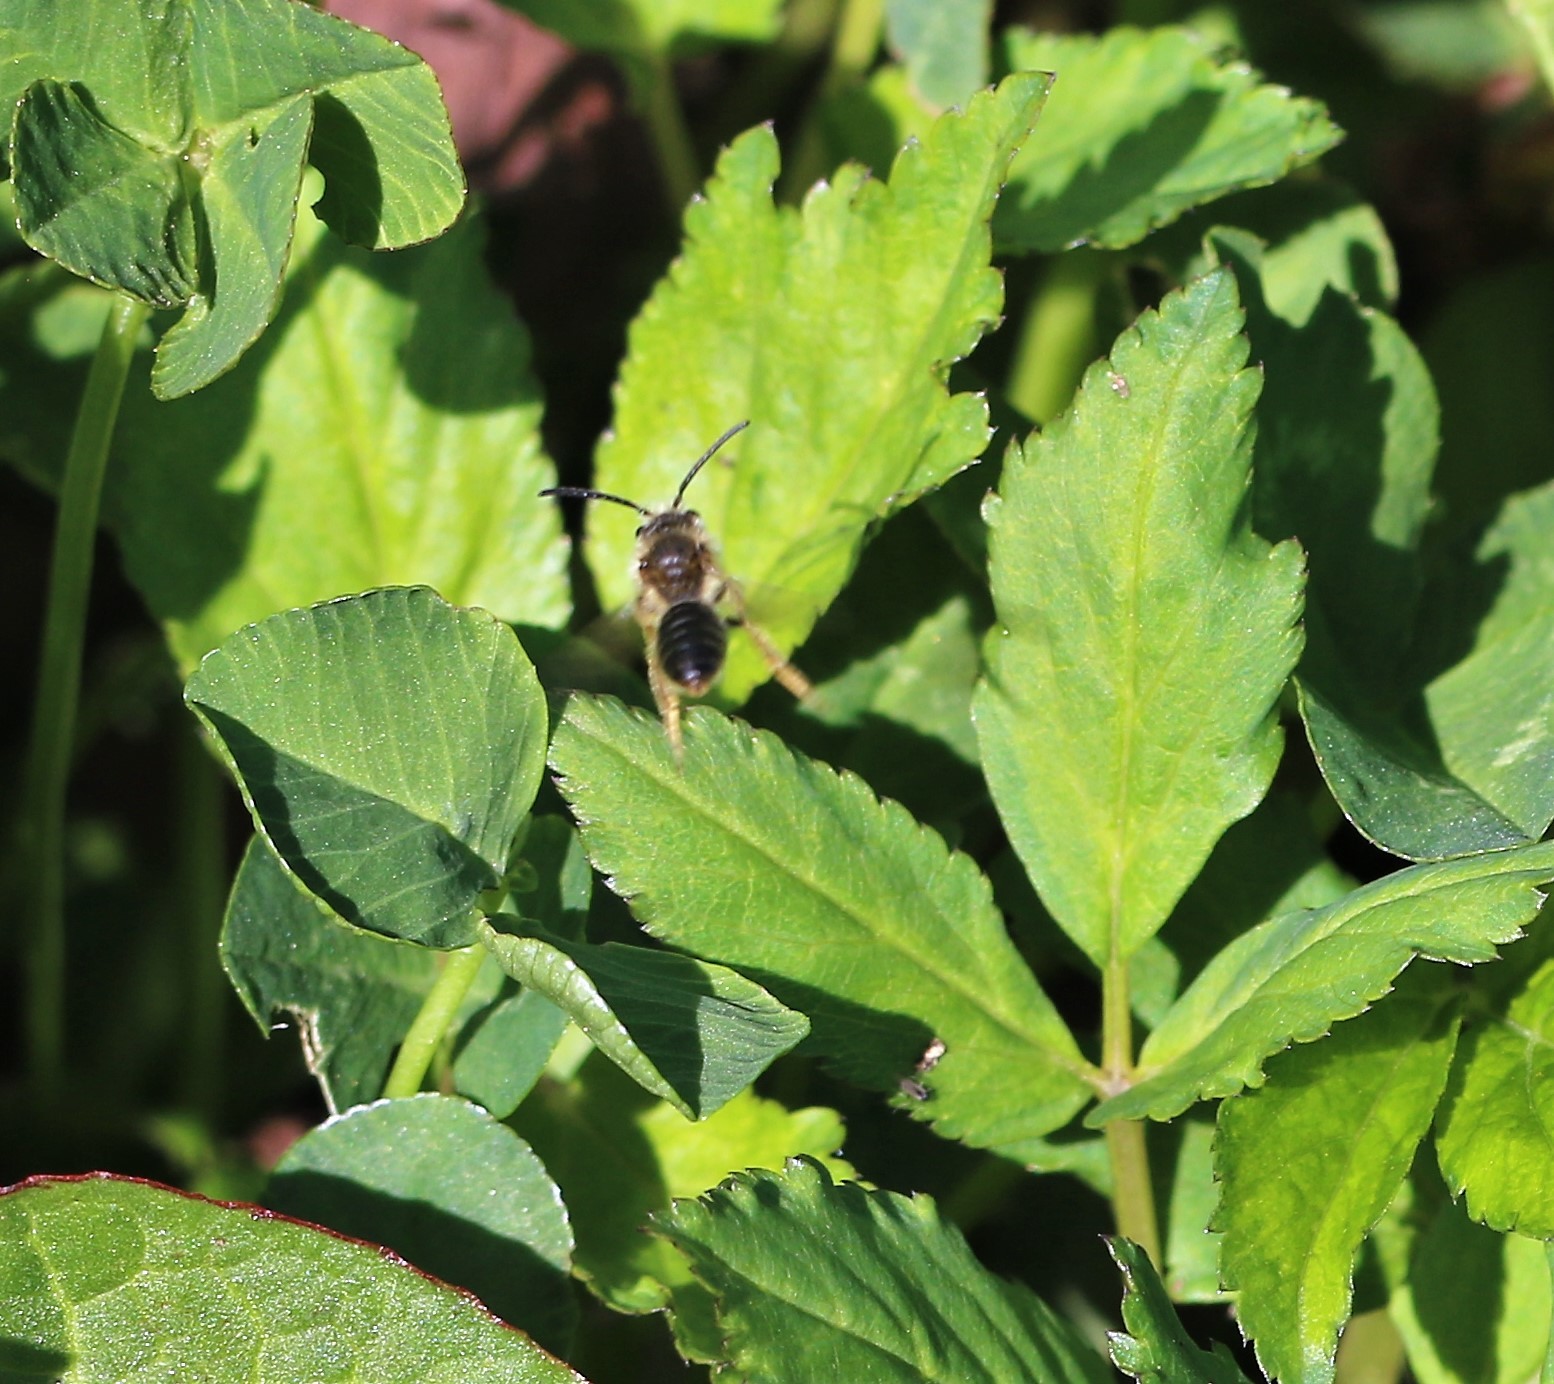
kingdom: Animalia
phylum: Arthropoda
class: Insecta
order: Hymenoptera
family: Andrenidae
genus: Andrena
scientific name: Andrena
